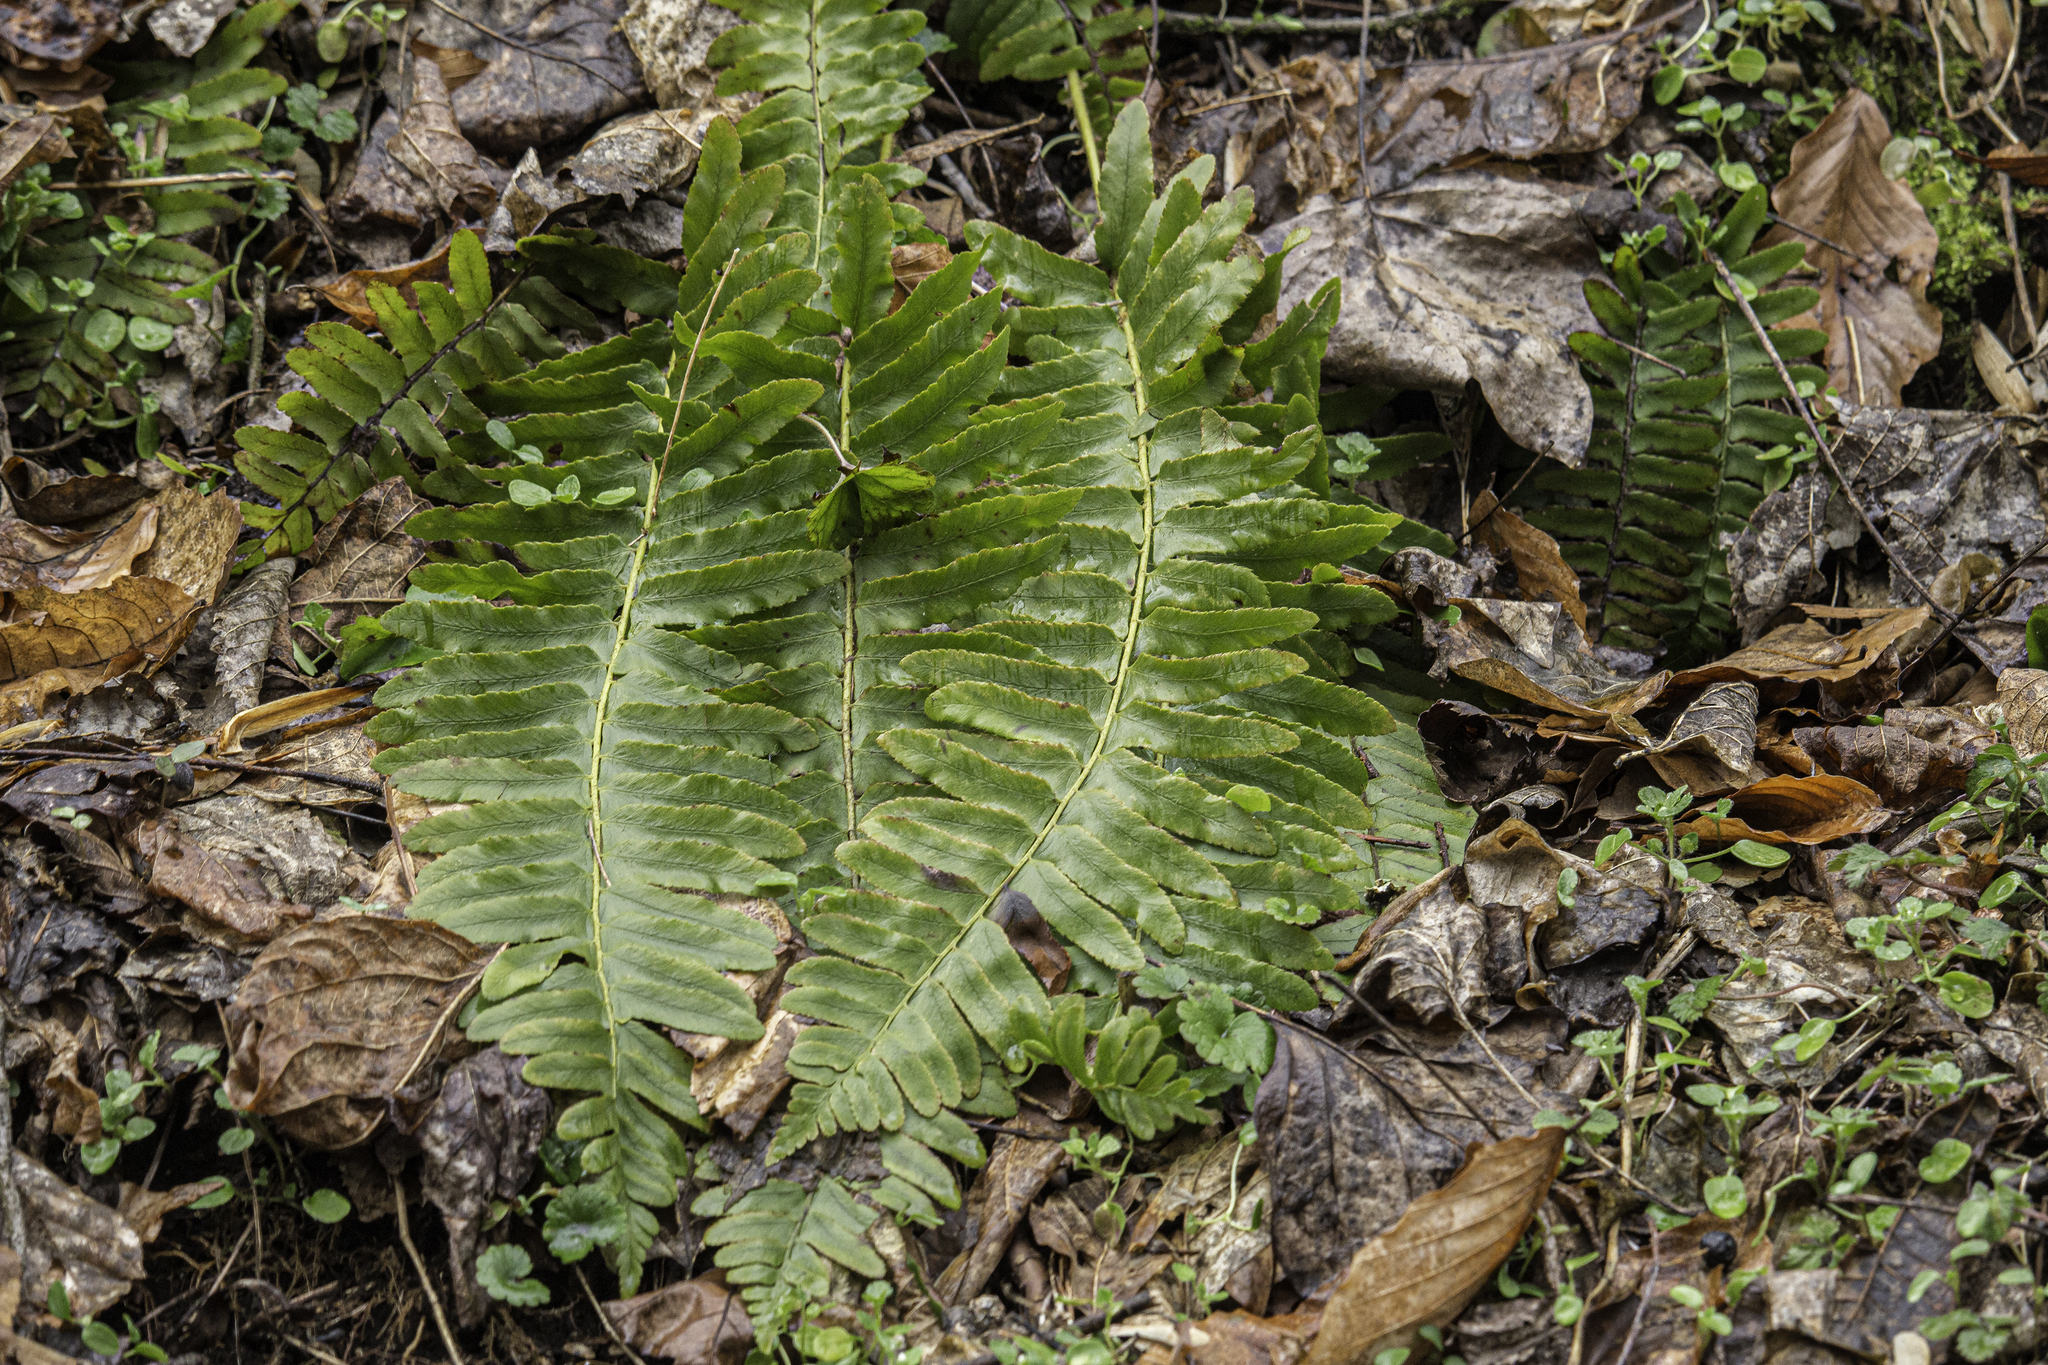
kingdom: Plantae
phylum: Tracheophyta
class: Polypodiopsida
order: Polypodiales
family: Dryopteridaceae
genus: Polystichum
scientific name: Polystichum acrostichoides
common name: Christmas fern
